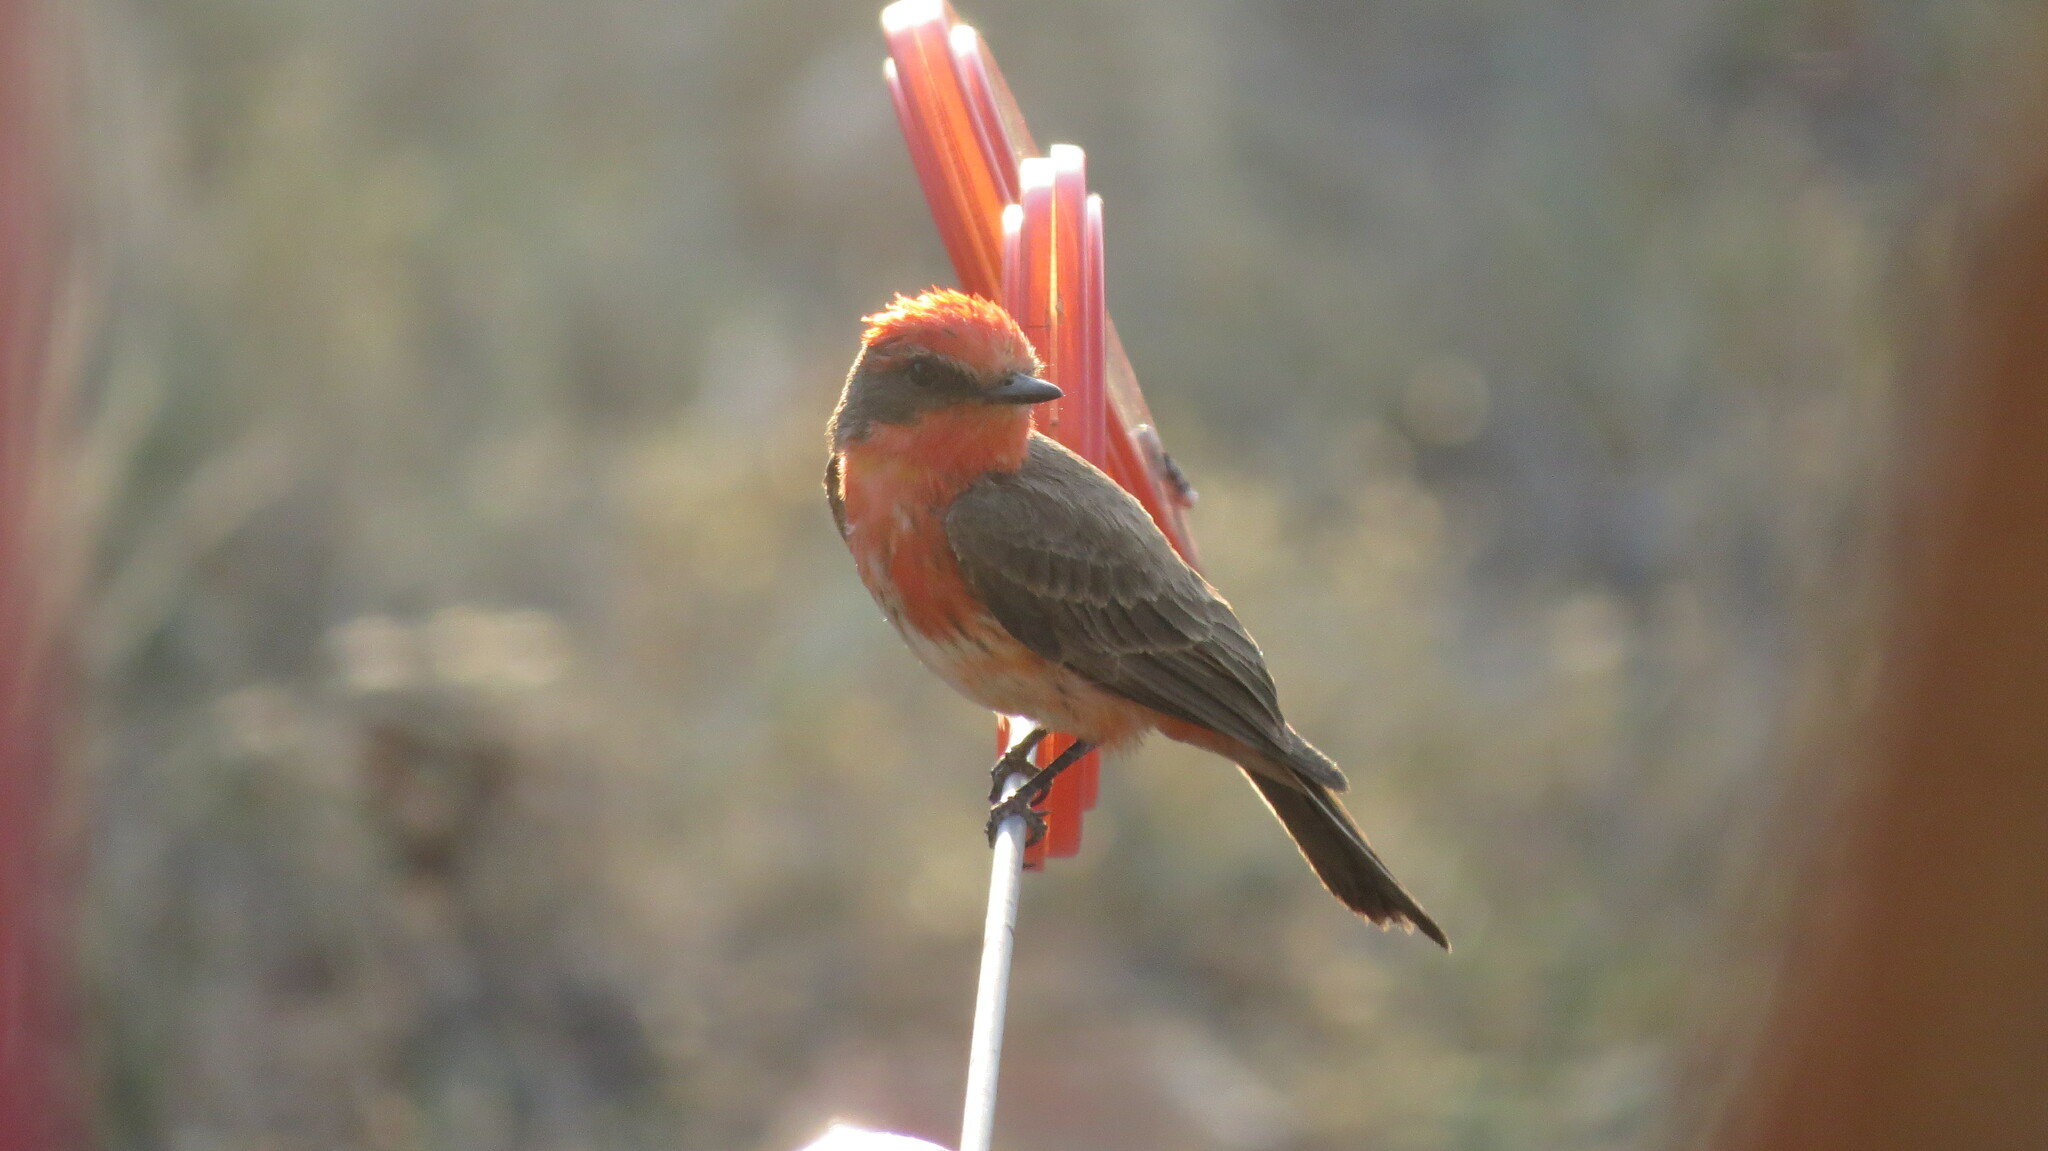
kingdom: Animalia
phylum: Chordata
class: Aves
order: Passeriformes
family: Tyrannidae
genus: Pyrocephalus
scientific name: Pyrocephalus rubinus
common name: Vermilion flycatcher
